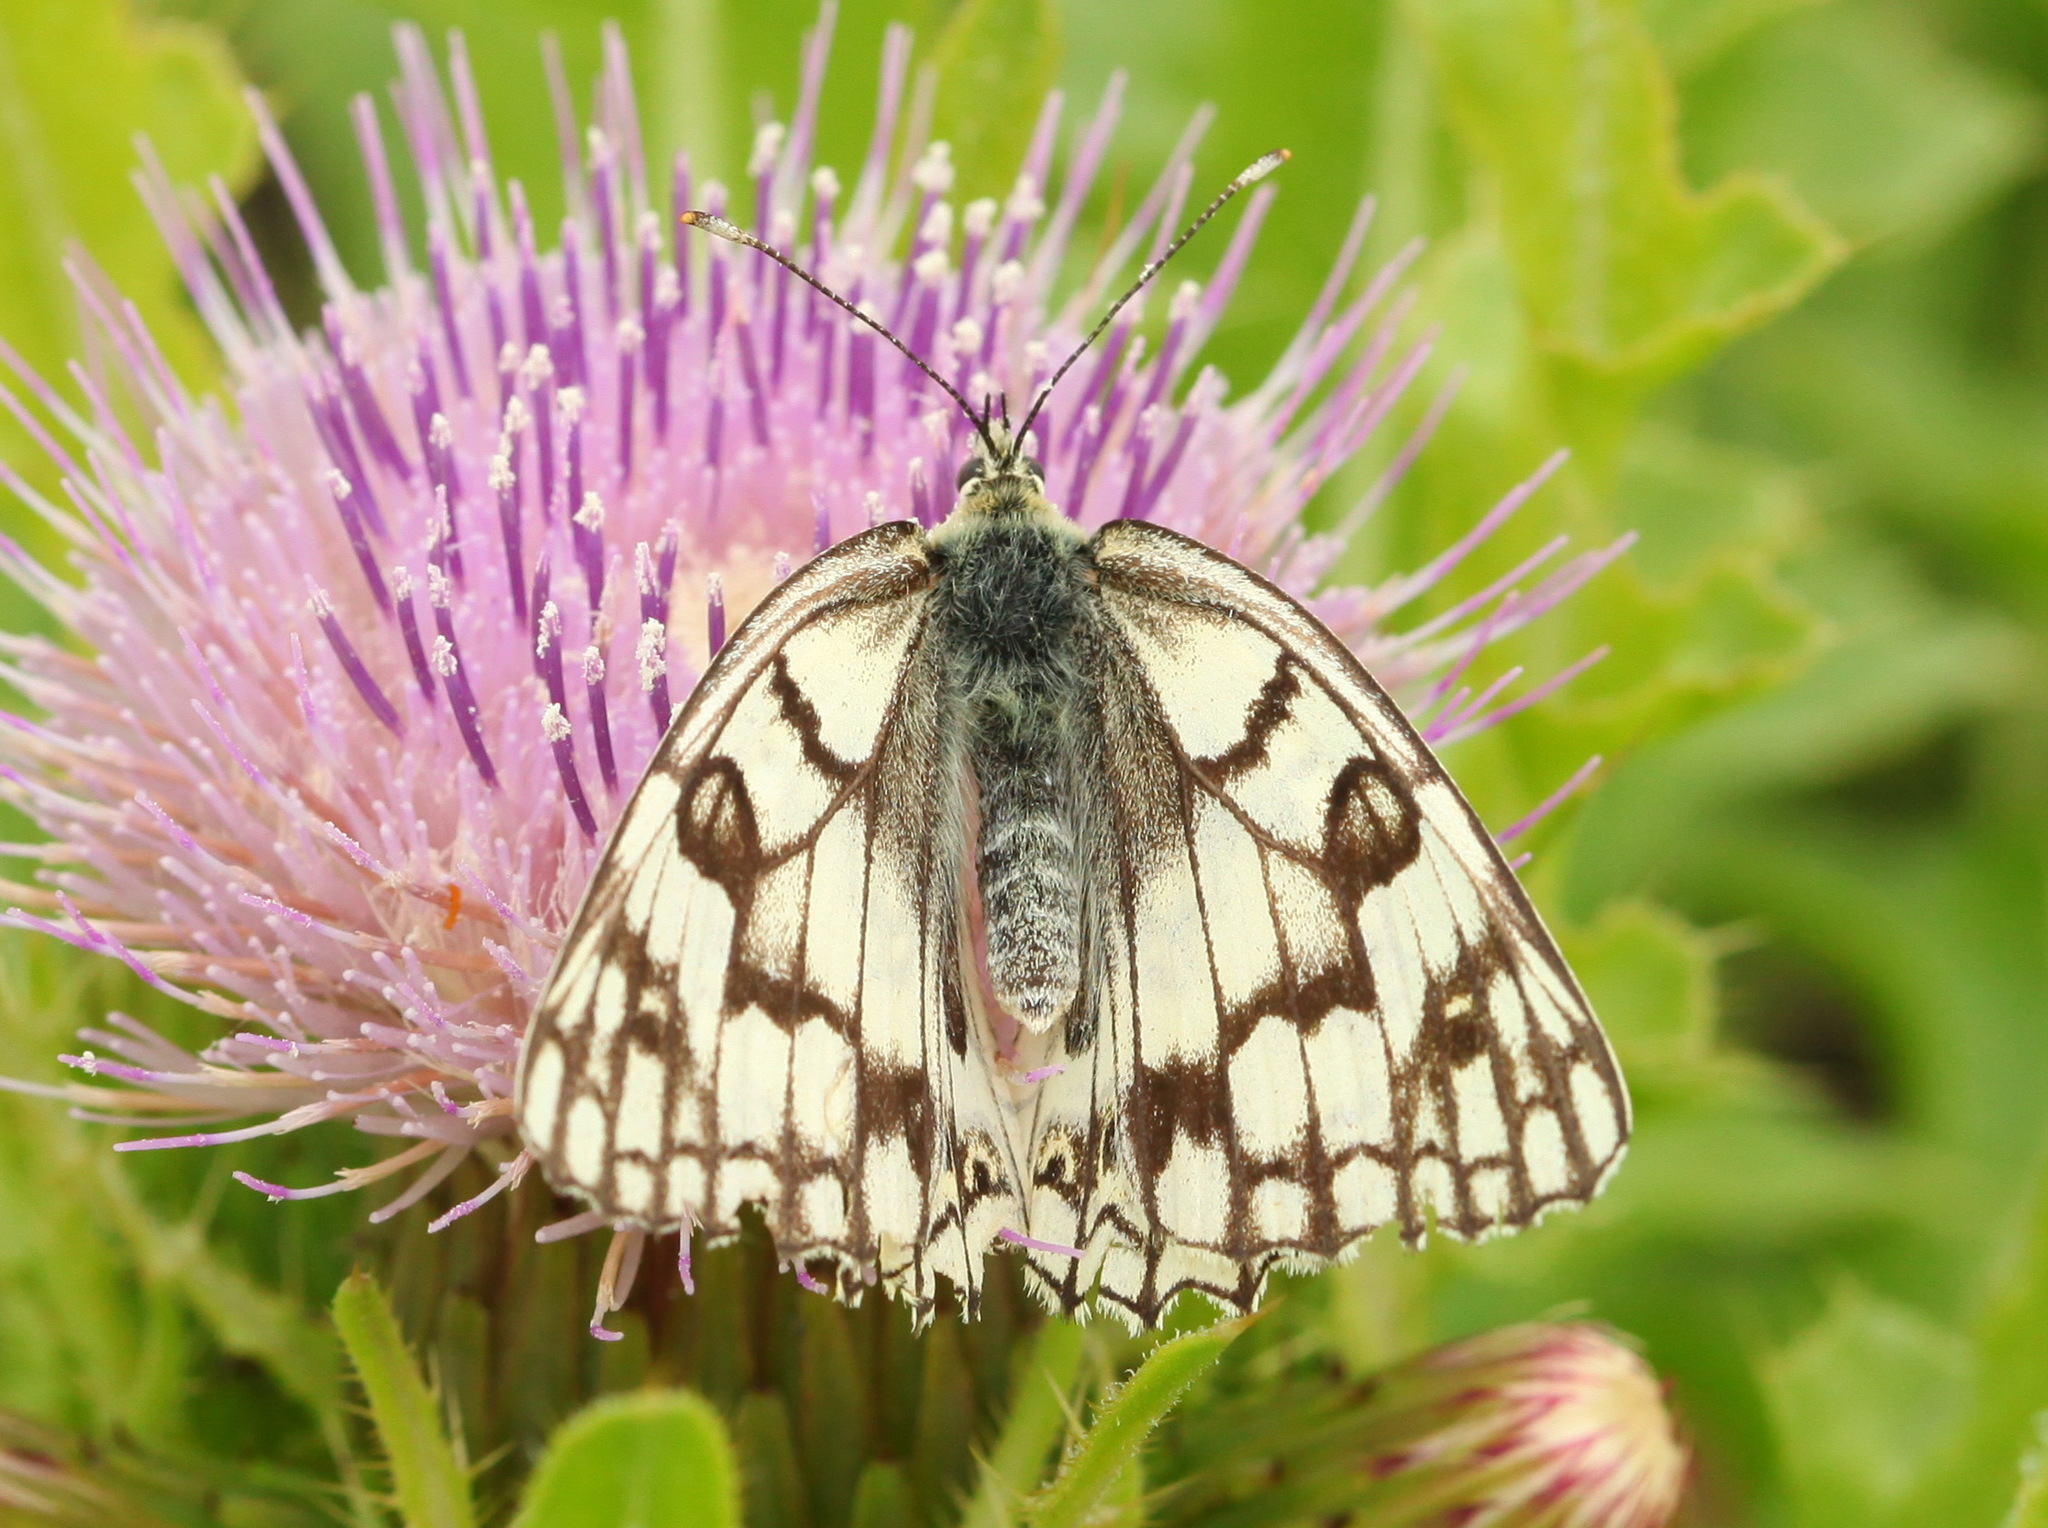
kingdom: Animalia
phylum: Arthropoda
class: Insecta
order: Lepidoptera
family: Nymphalidae
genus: Melanargia
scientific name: Melanargia japygia
